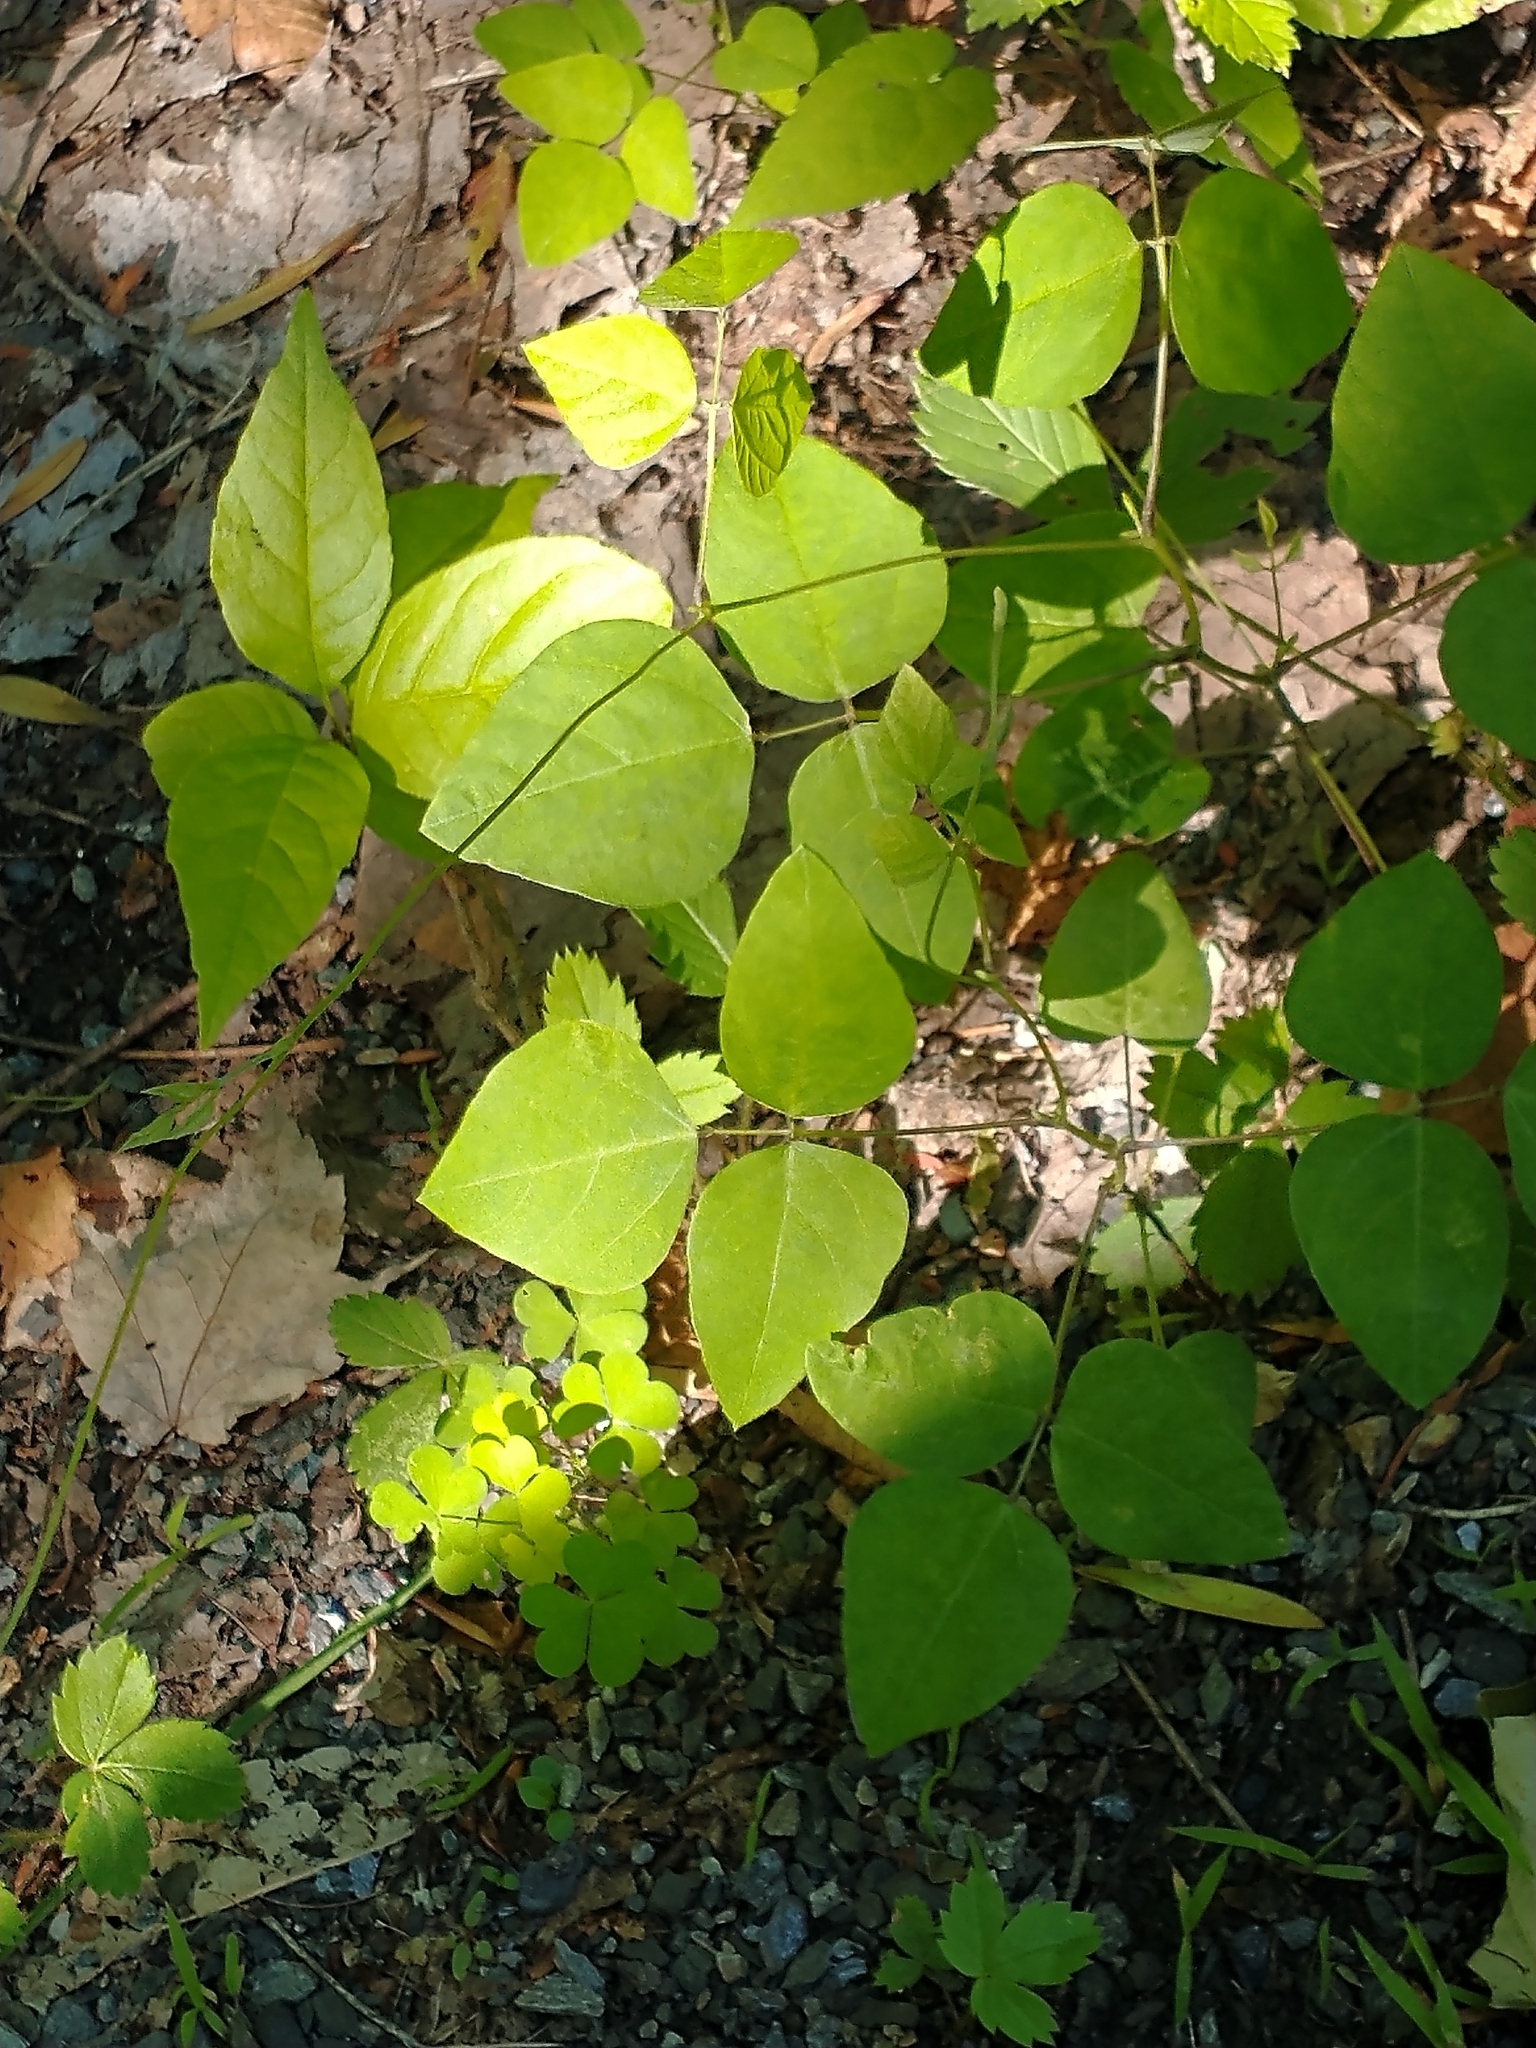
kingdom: Plantae
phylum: Tracheophyta
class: Magnoliopsida
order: Fabales
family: Fabaceae
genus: Amphicarpaea
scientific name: Amphicarpaea bracteata
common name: American hog peanut
